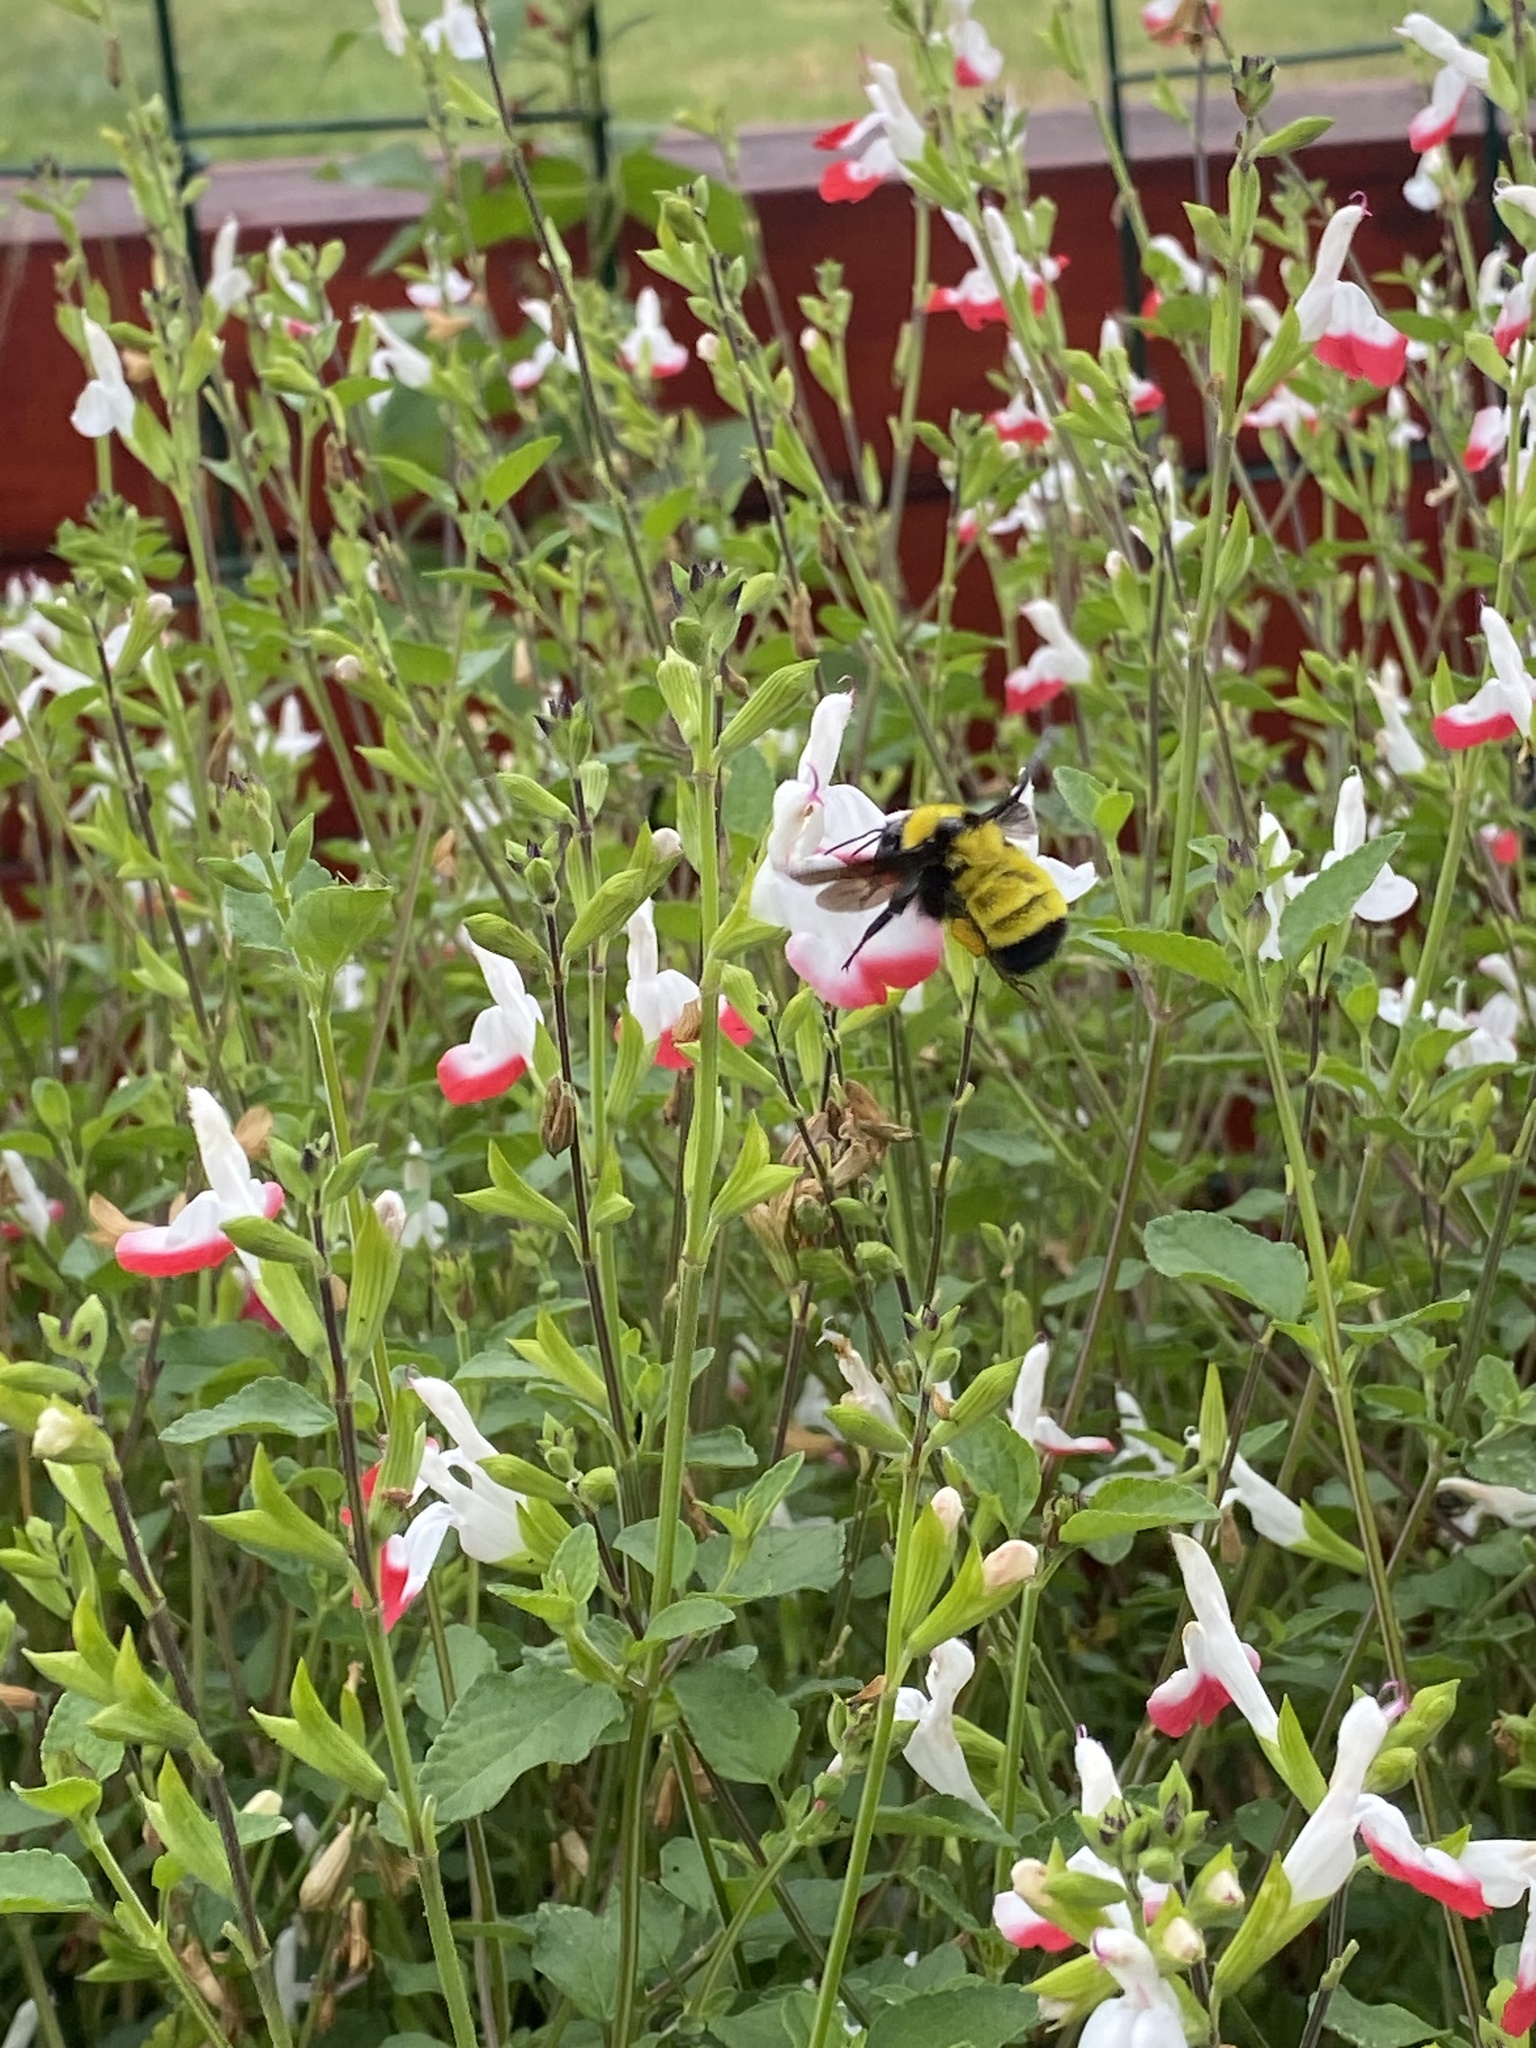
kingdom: Animalia
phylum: Arthropoda
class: Insecta
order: Hymenoptera
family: Apidae
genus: Bombus
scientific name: Bombus sonorus
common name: Sonoran bumble bee
